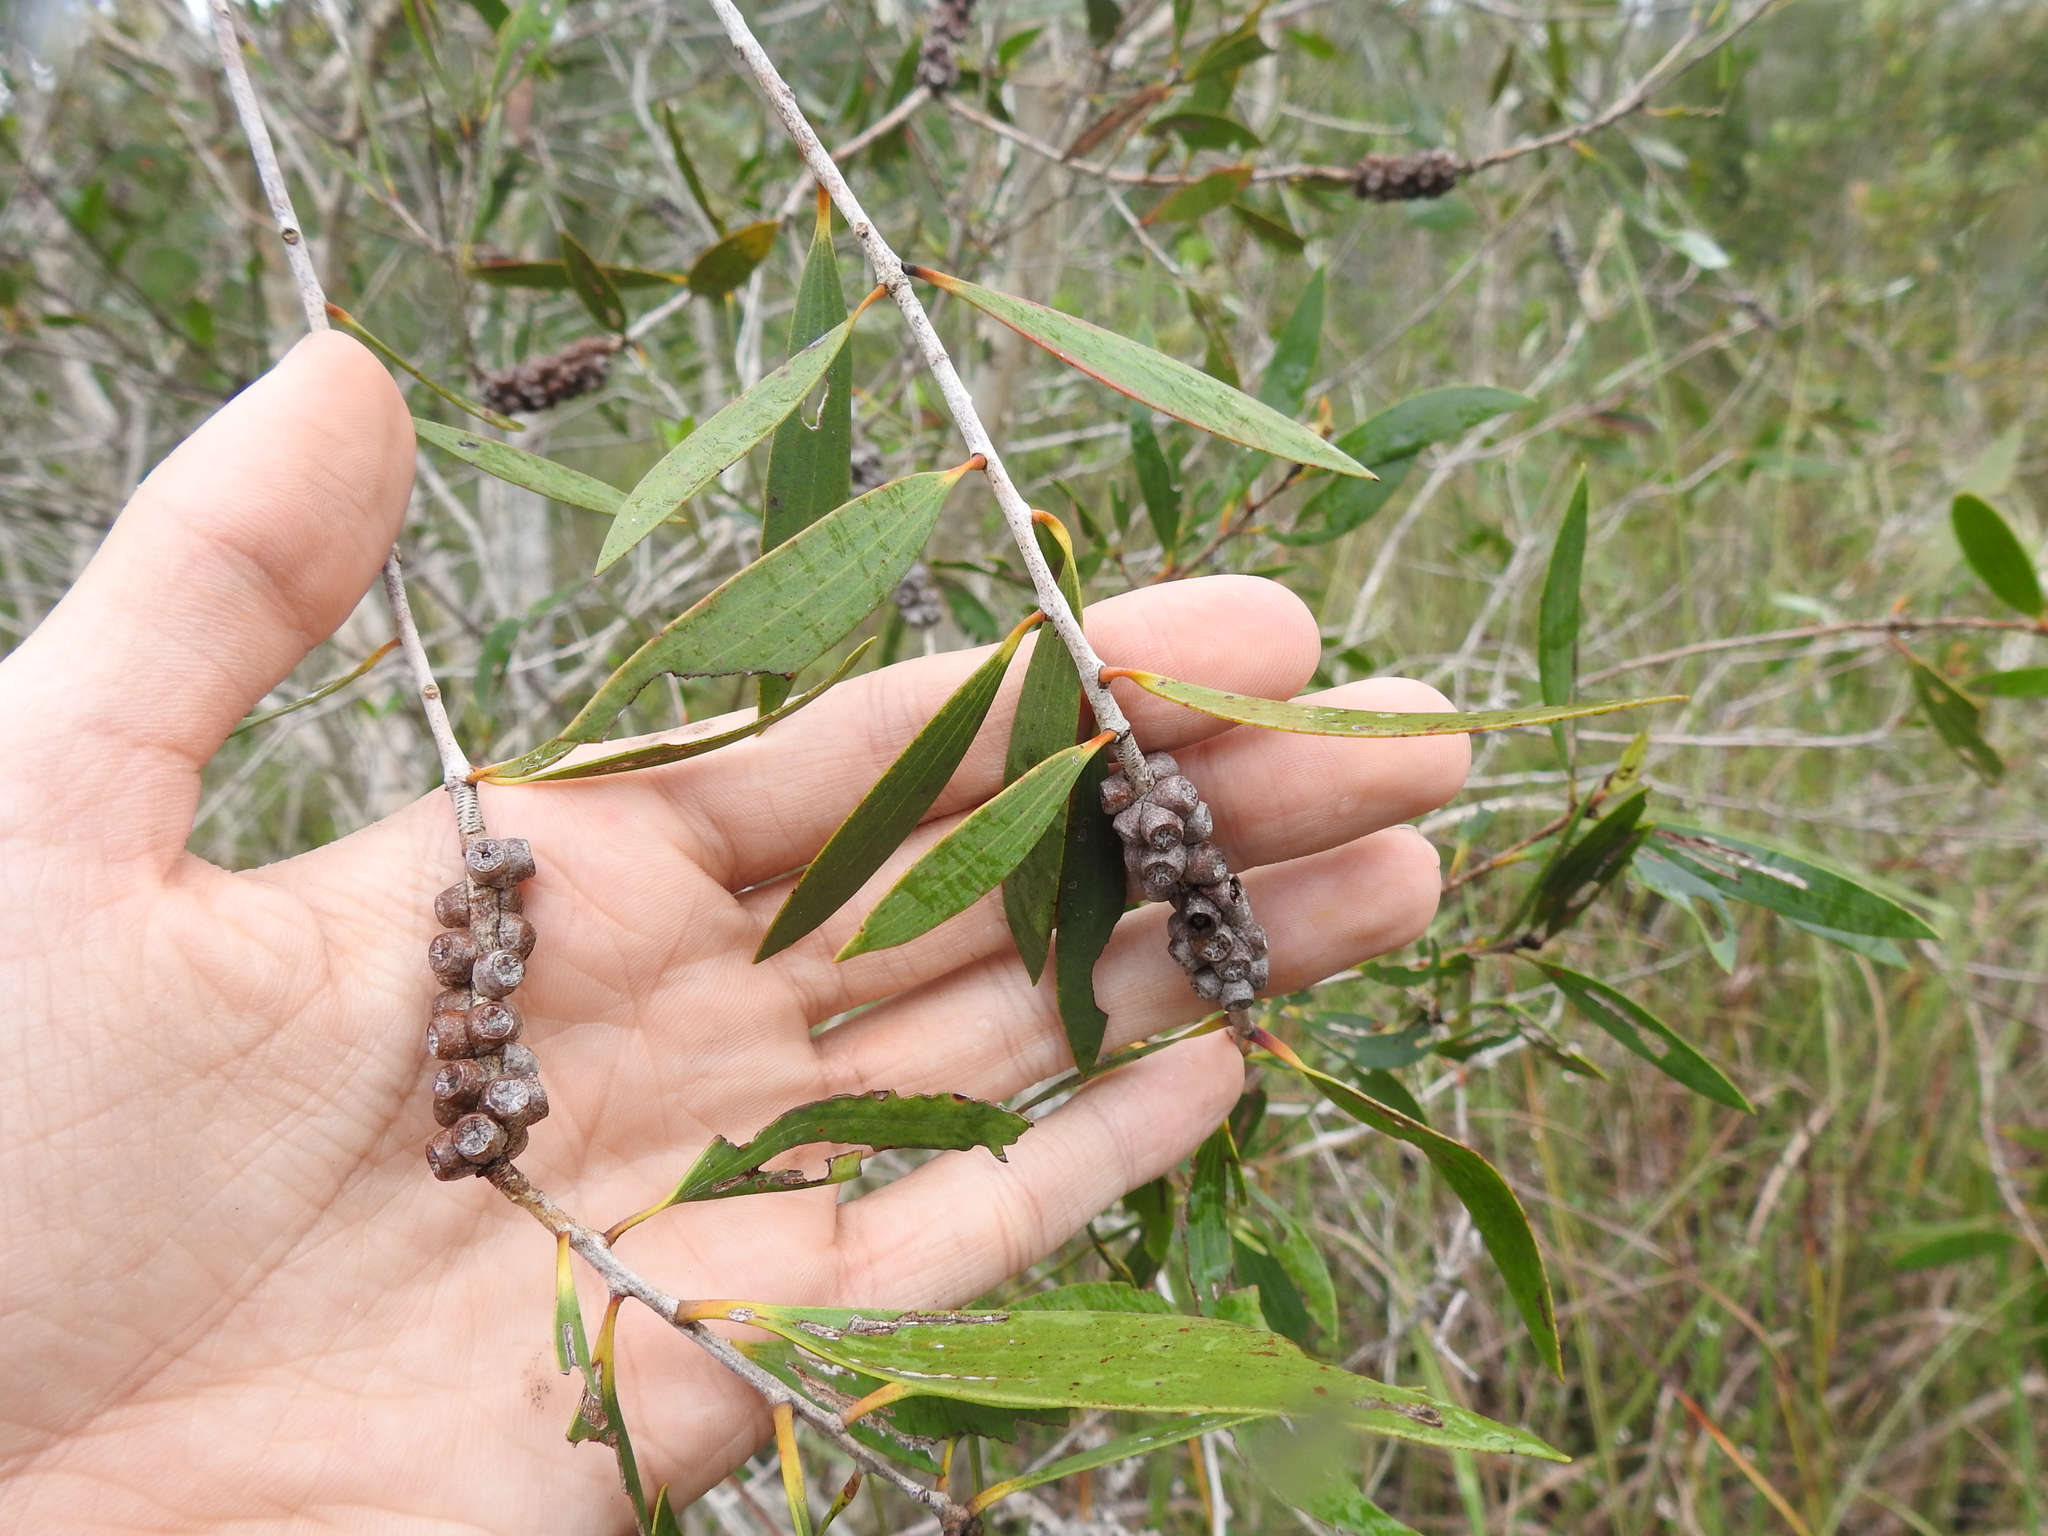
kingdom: Plantae
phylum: Tracheophyta
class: Magnoliopsida
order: Myrtales
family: Myrtaceae
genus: Melaleuca
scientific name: Melaleuca quinquenervia
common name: Punktree
